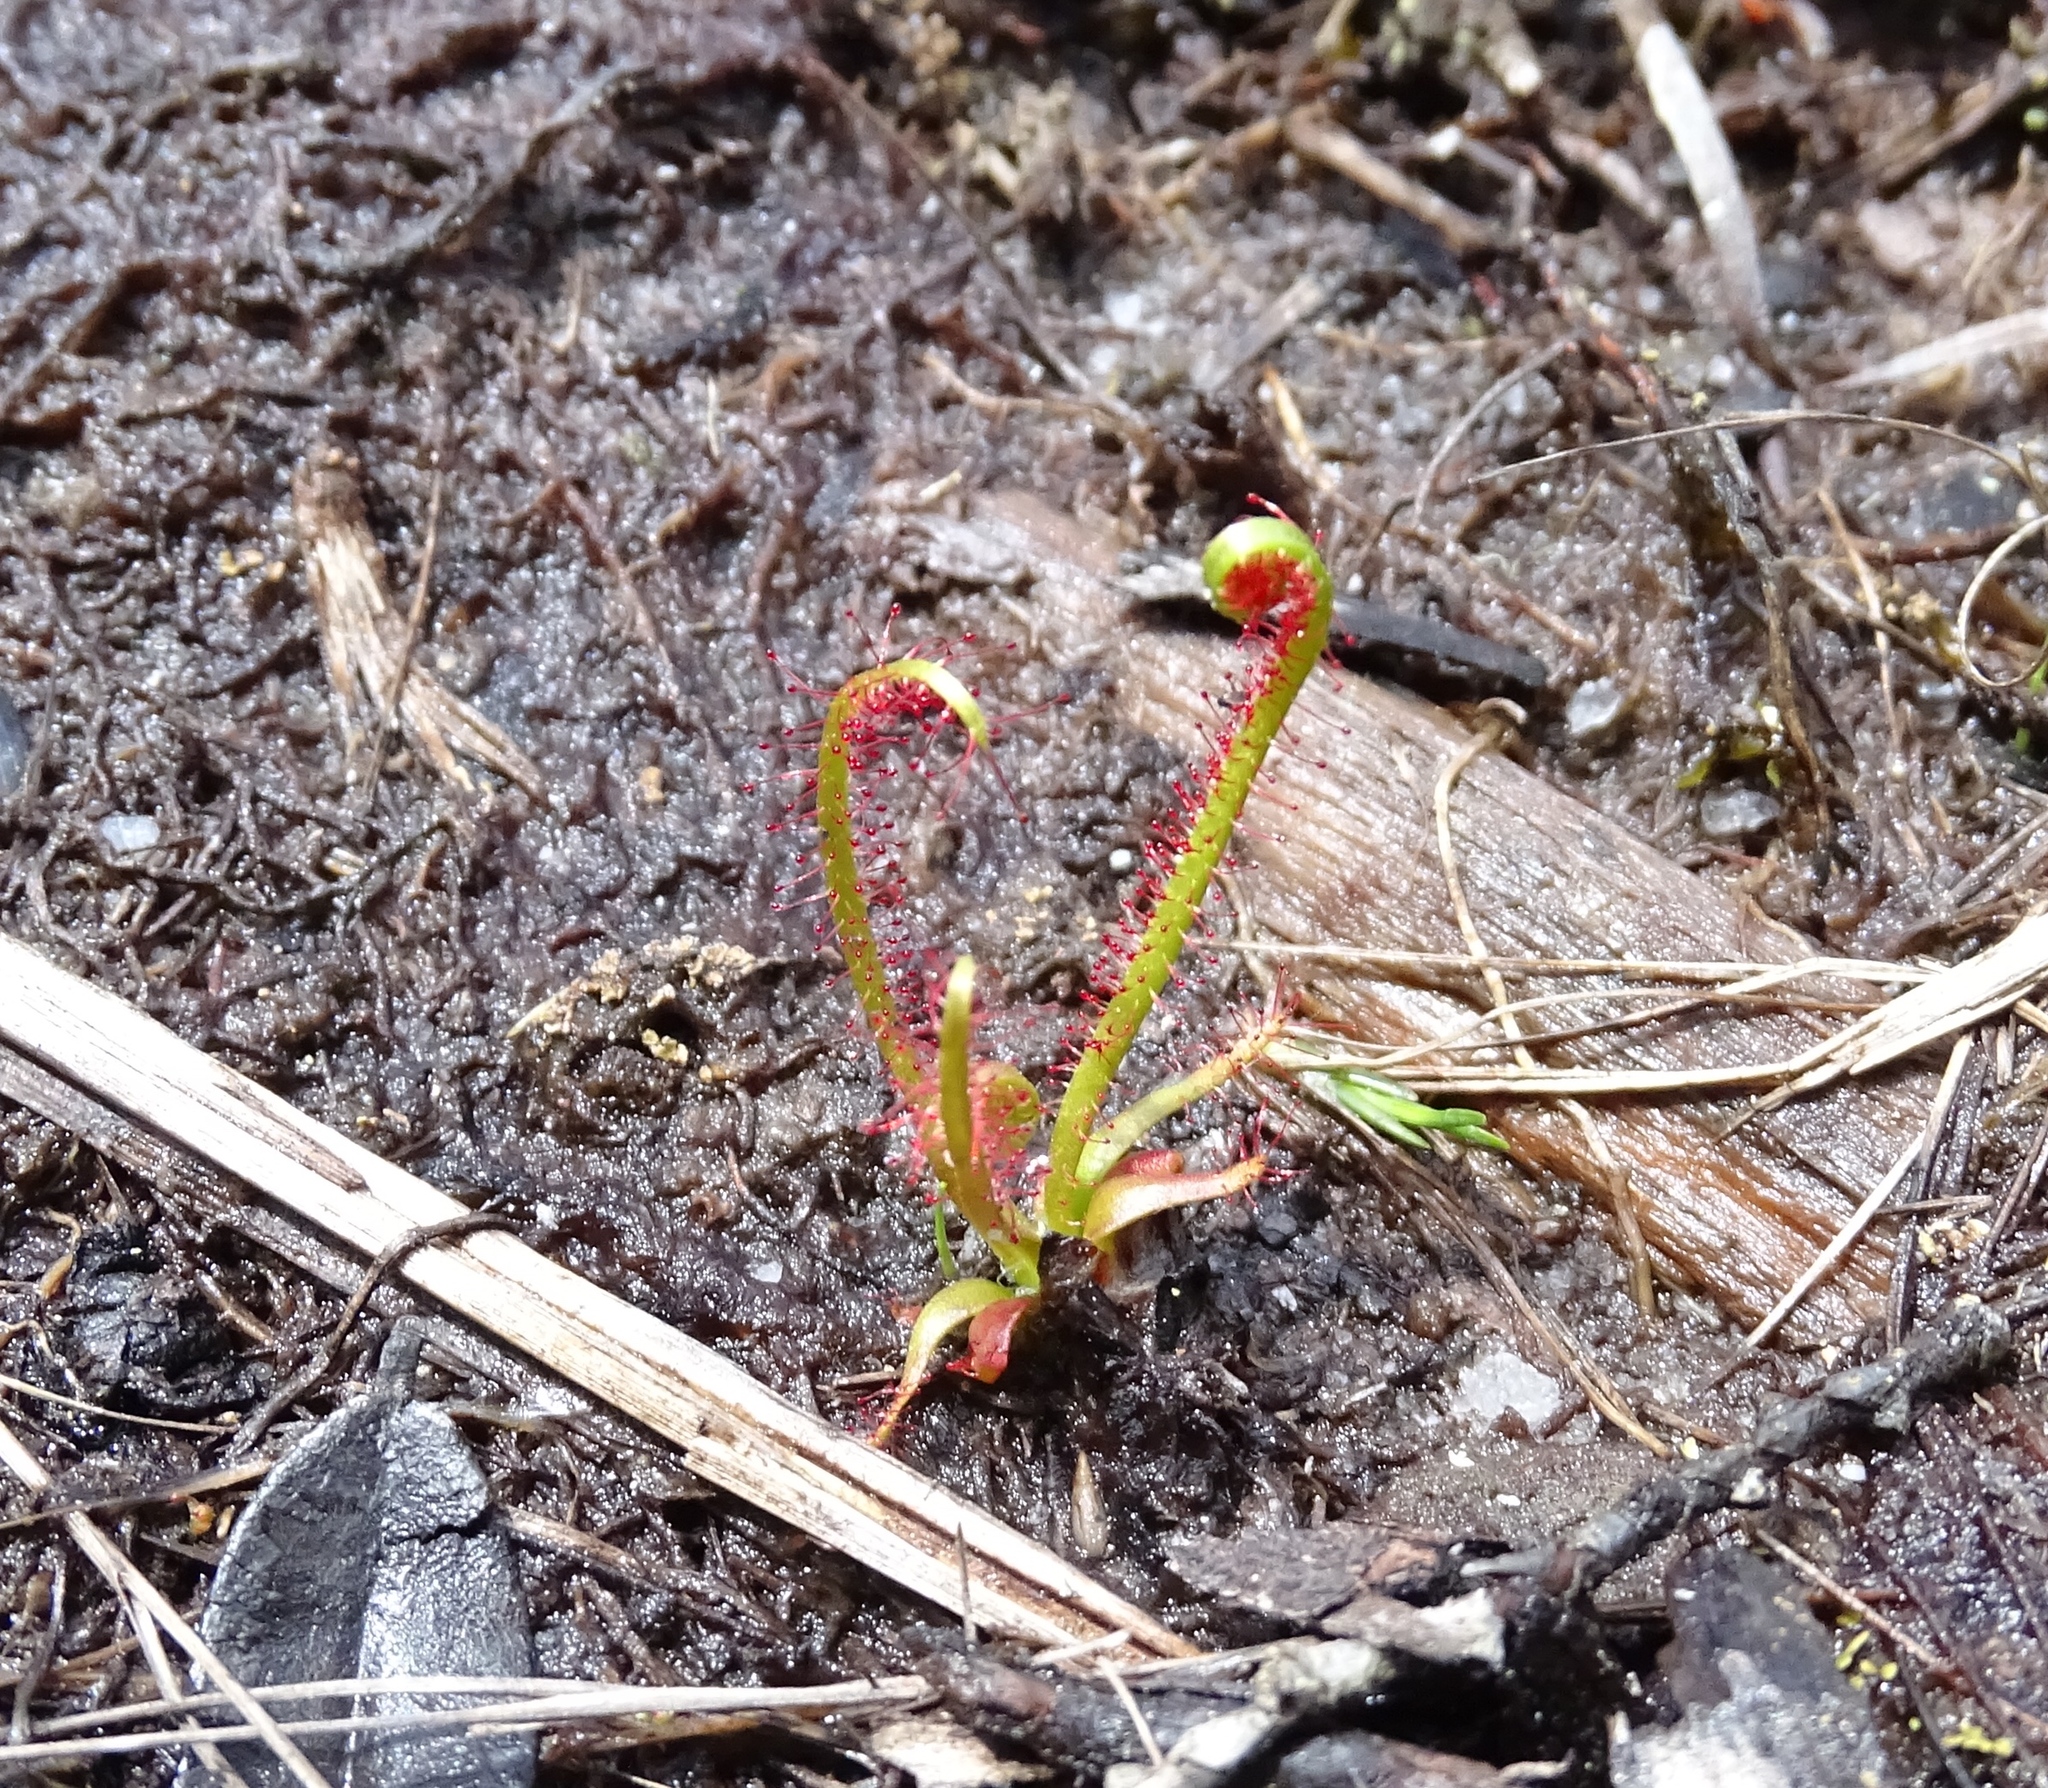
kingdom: Plantae
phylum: Tracheophyta
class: Magnoliopsida
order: Caryophyllales
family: Droseraceae
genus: Drosera
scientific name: Drosera filiformis
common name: Dew-thread
